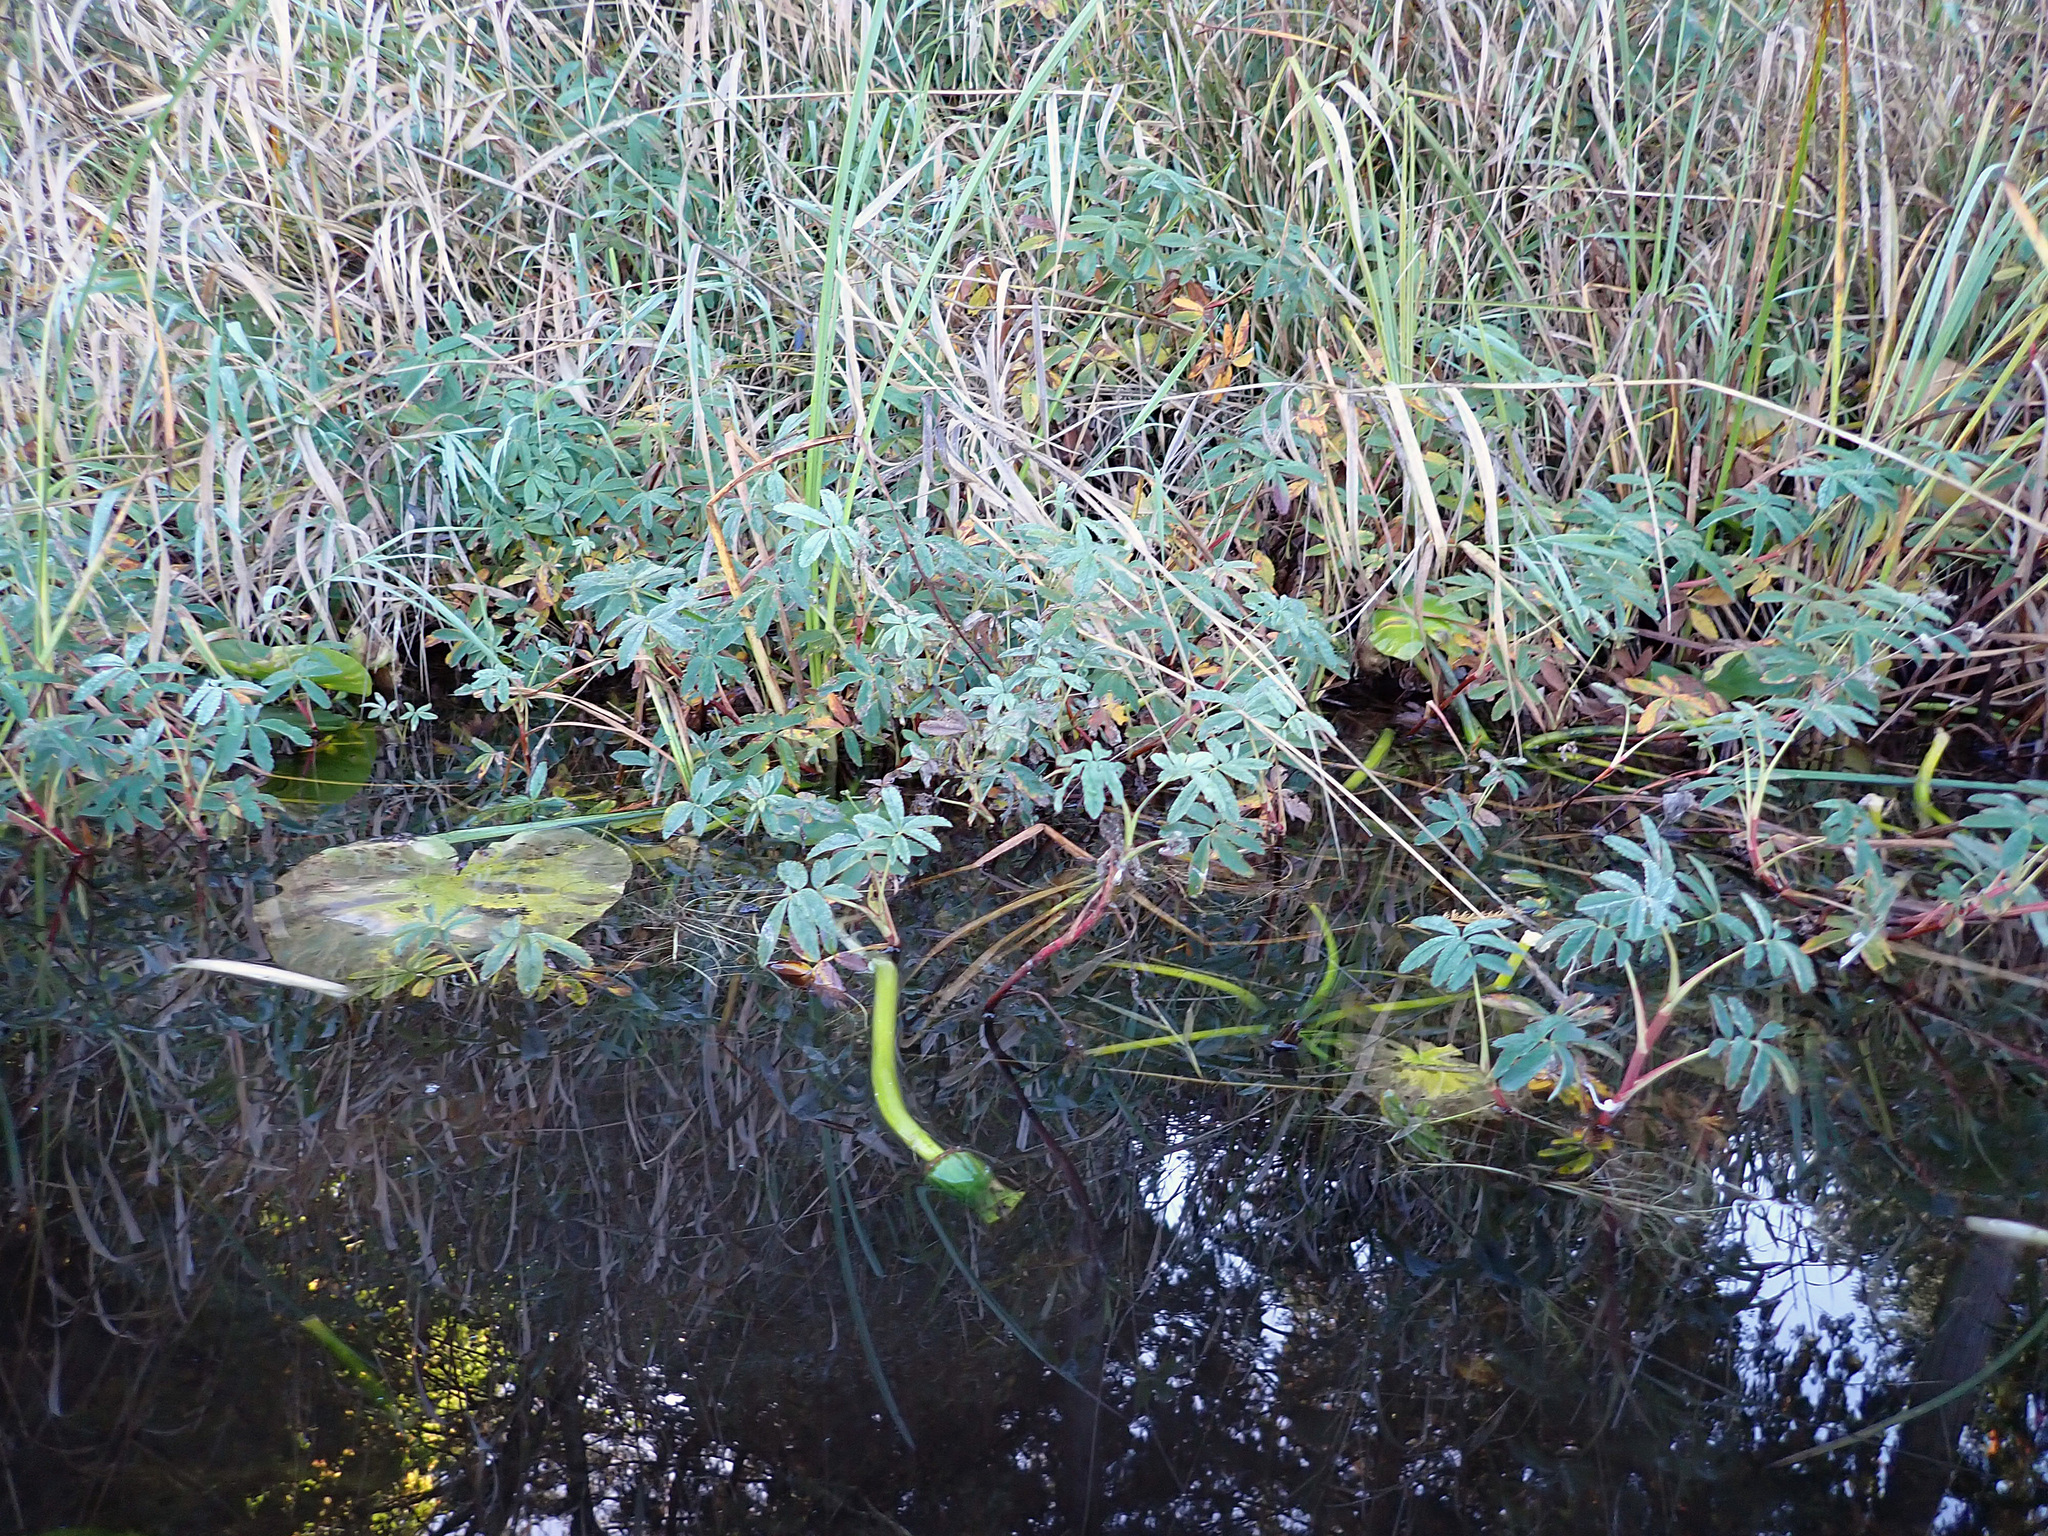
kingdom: Plantae
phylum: Tracheophyta
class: Magnoliopsida
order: Rosales
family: Rosaceae
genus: Comarum
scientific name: Comarum palustre
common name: Marsh cinquefoil
